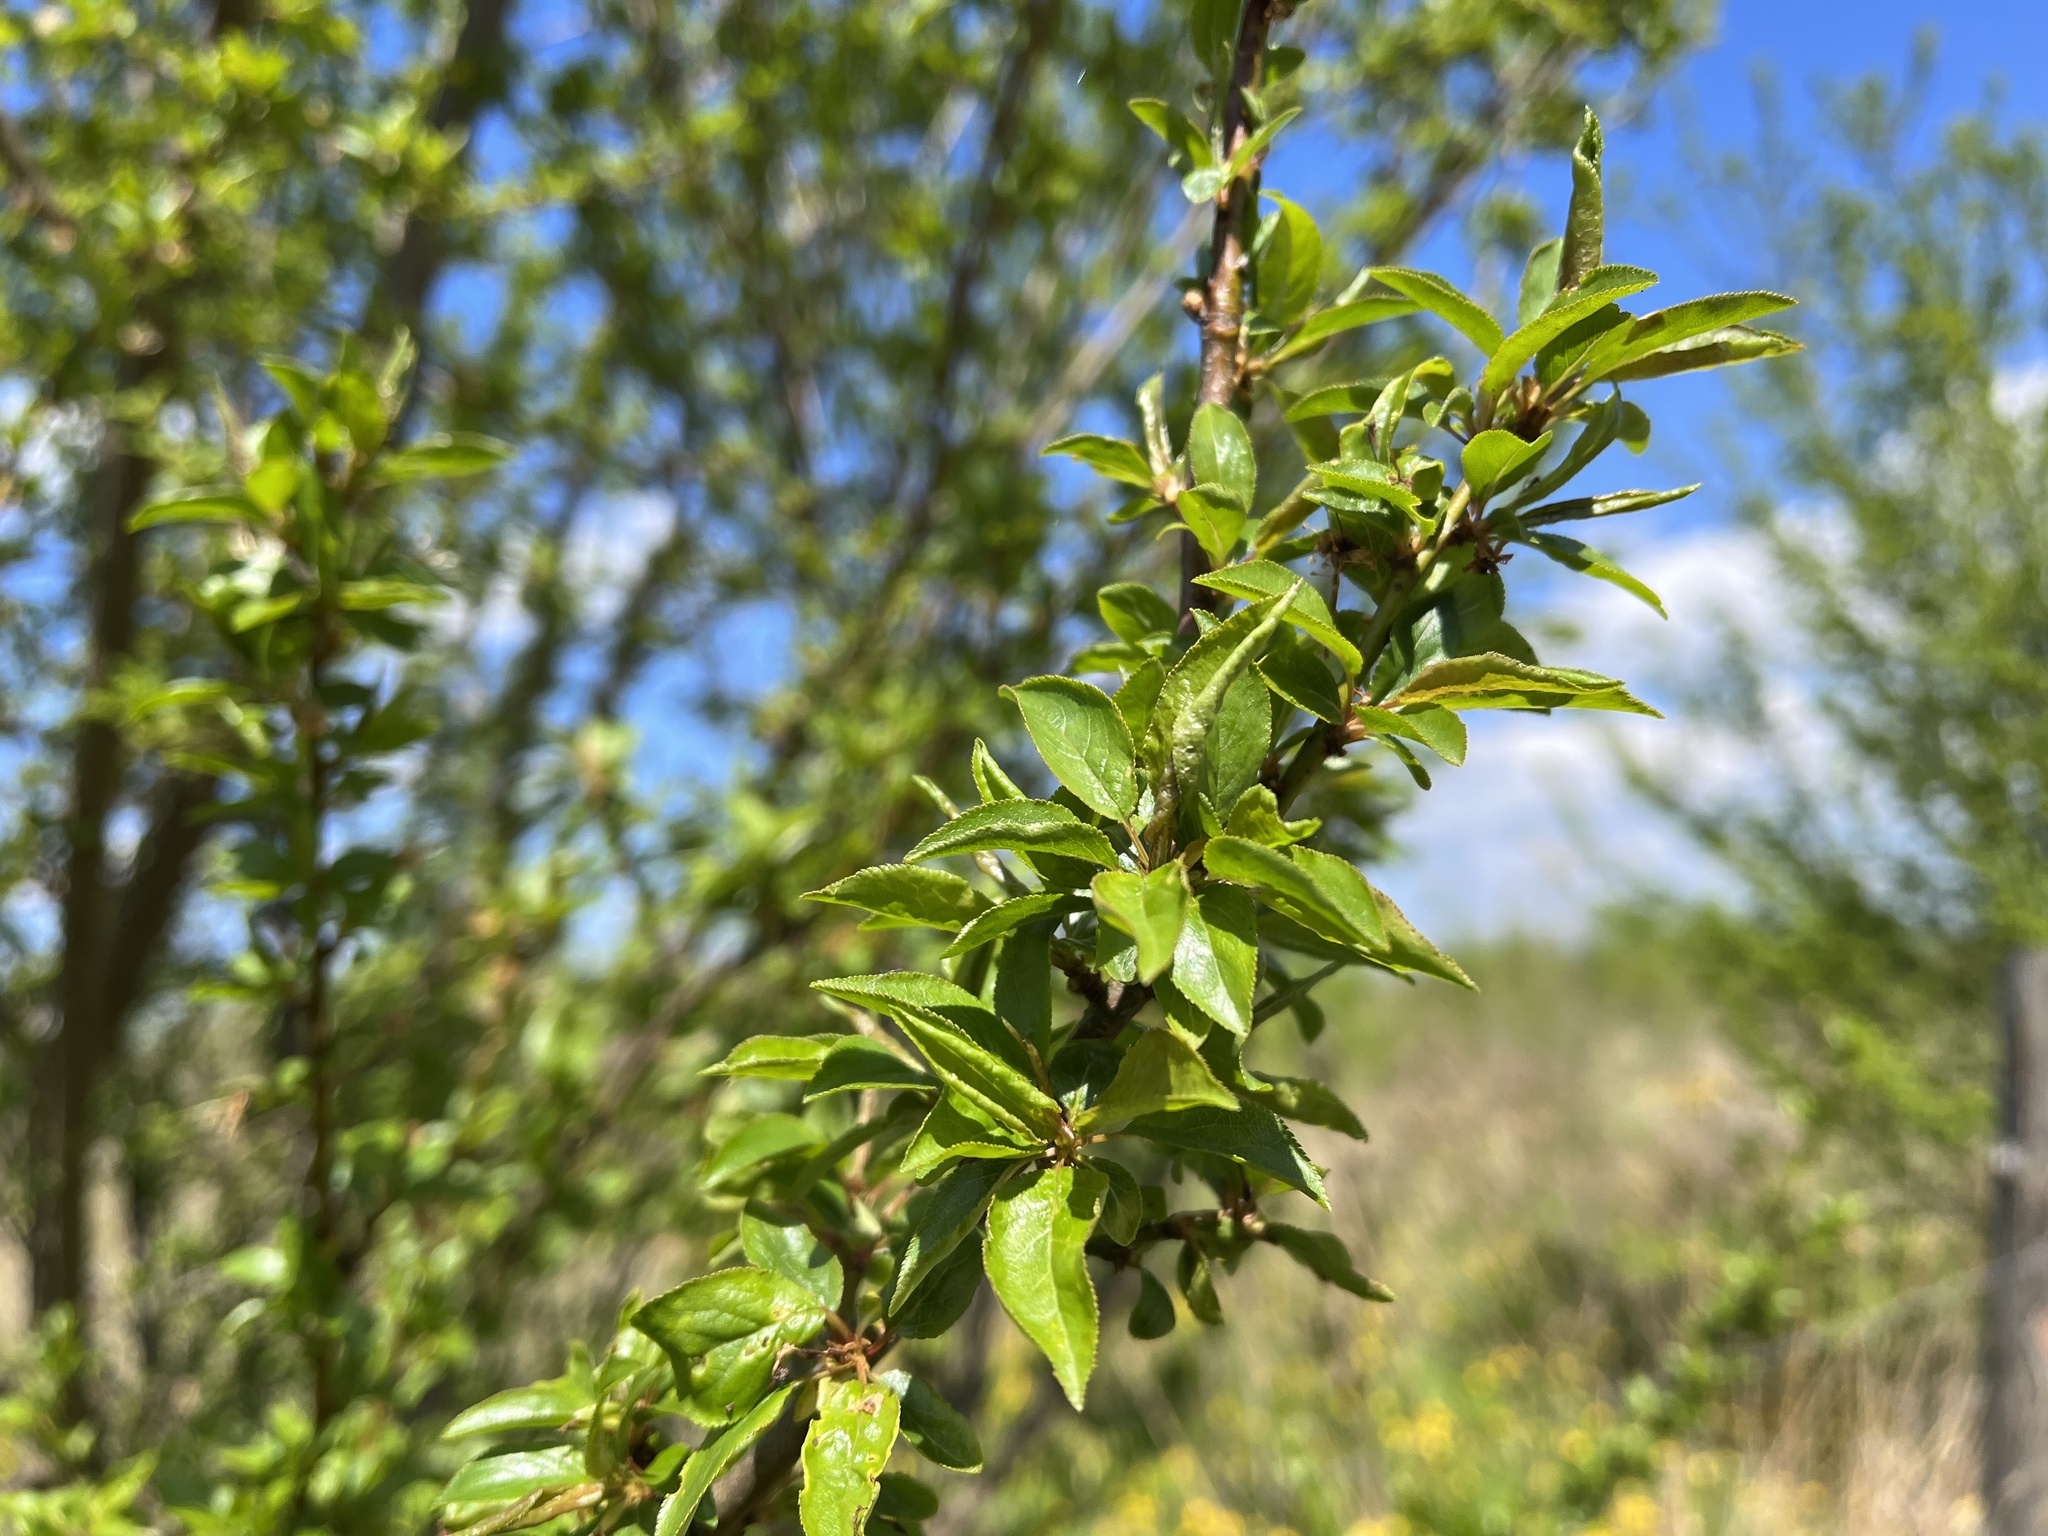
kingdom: Plantae
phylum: Tracheophyta
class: Magnoliopsida
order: Rosales
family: Rosaceae
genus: Prunus
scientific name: Prunus cerasifera
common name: Cherry plum
